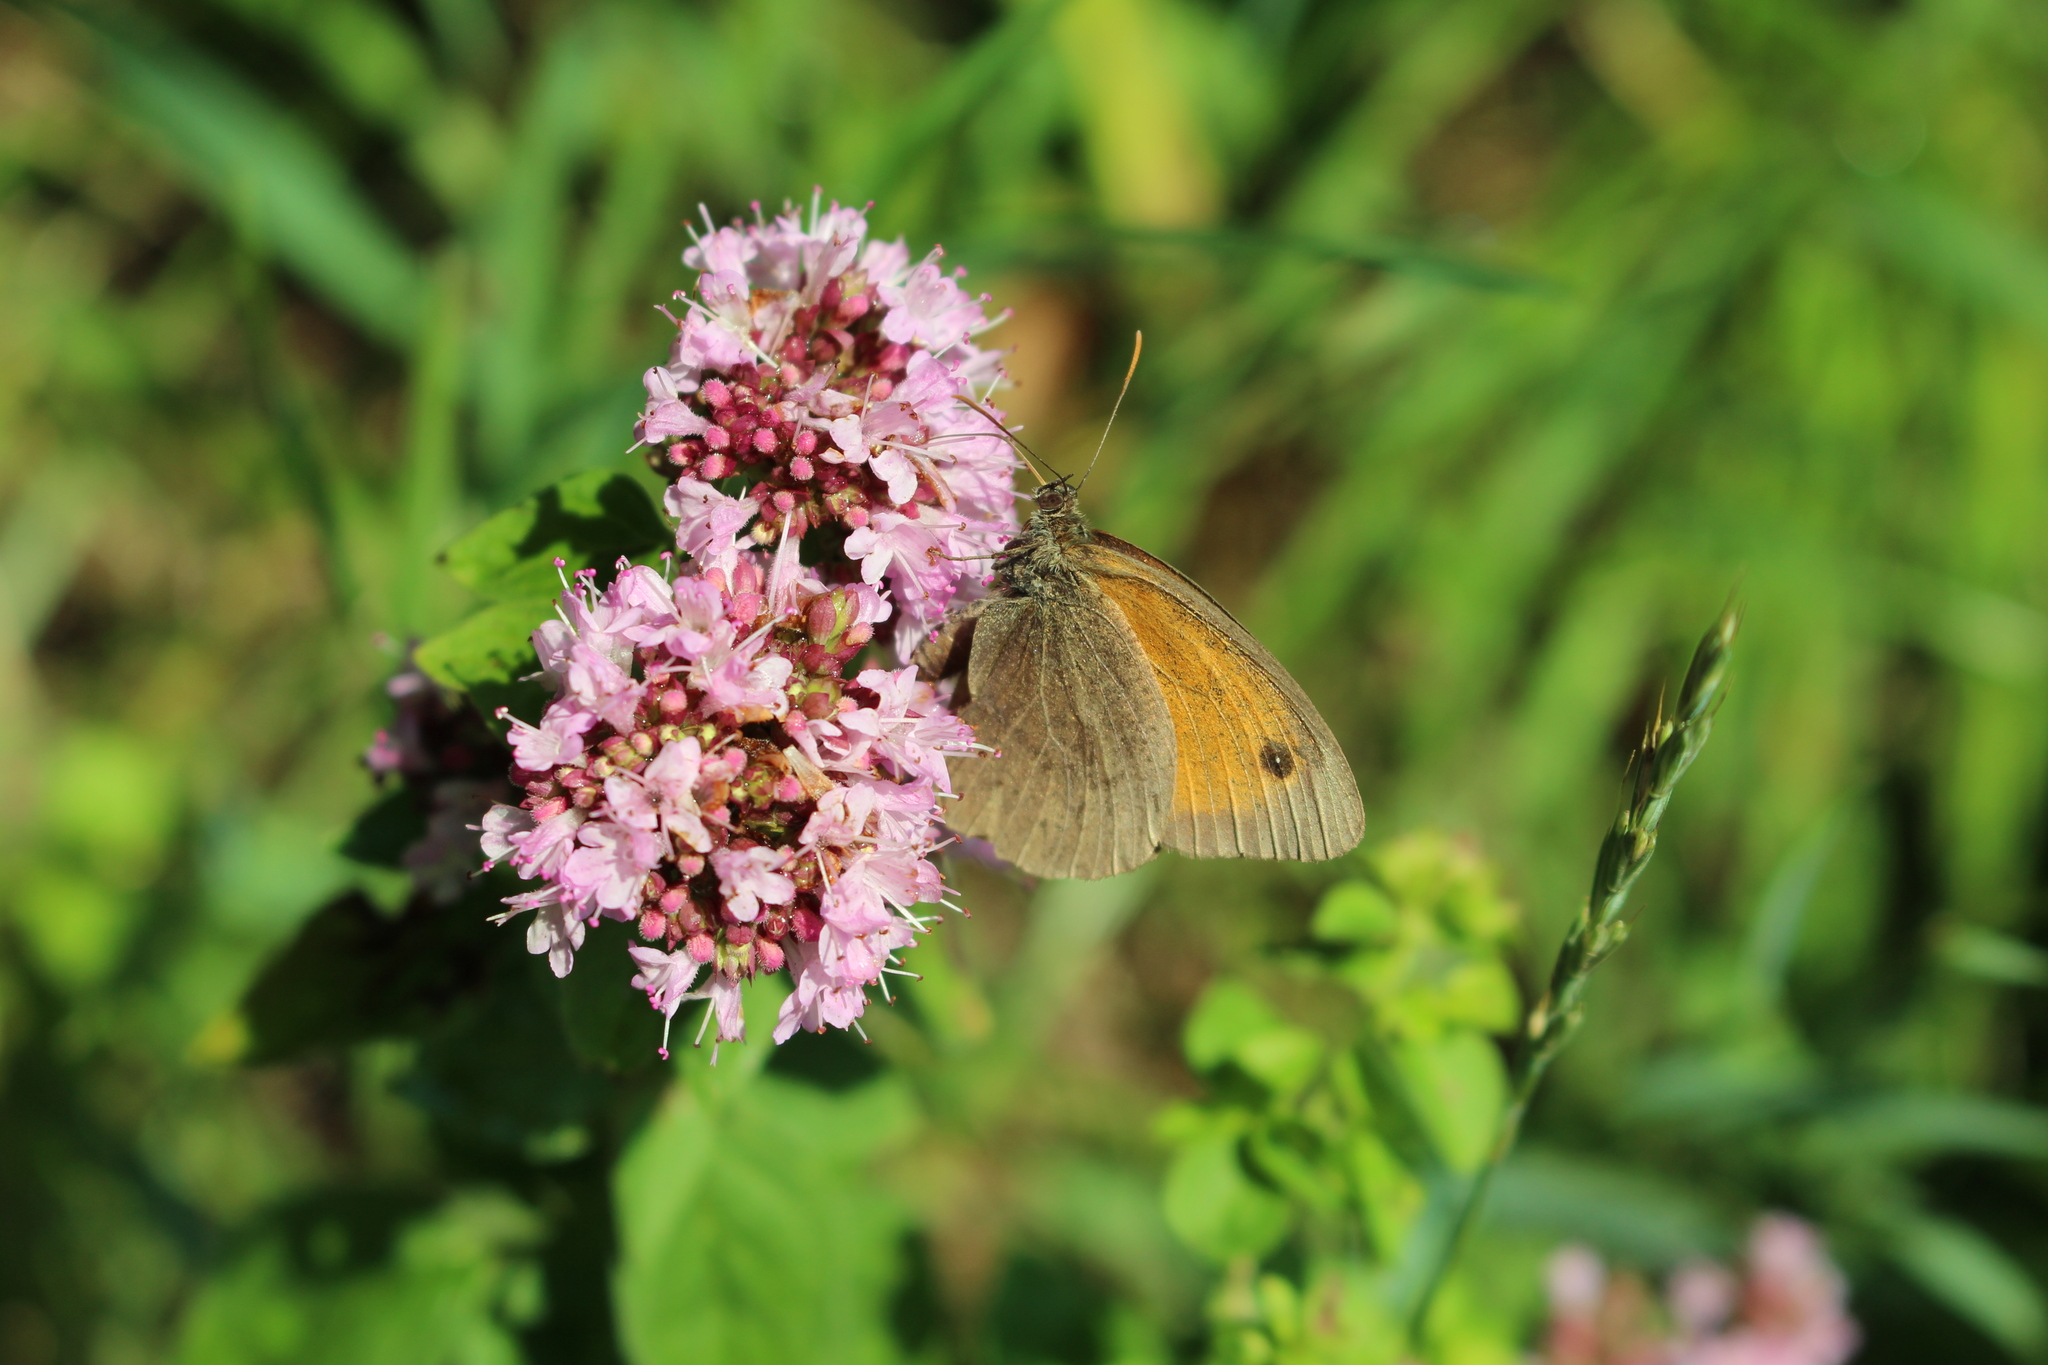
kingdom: Animalia
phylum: Arthropoda
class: Insecta
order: Lepidoptera
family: Nymphalidae
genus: Maniola
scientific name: Maniola jurtina
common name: Meadow brown
